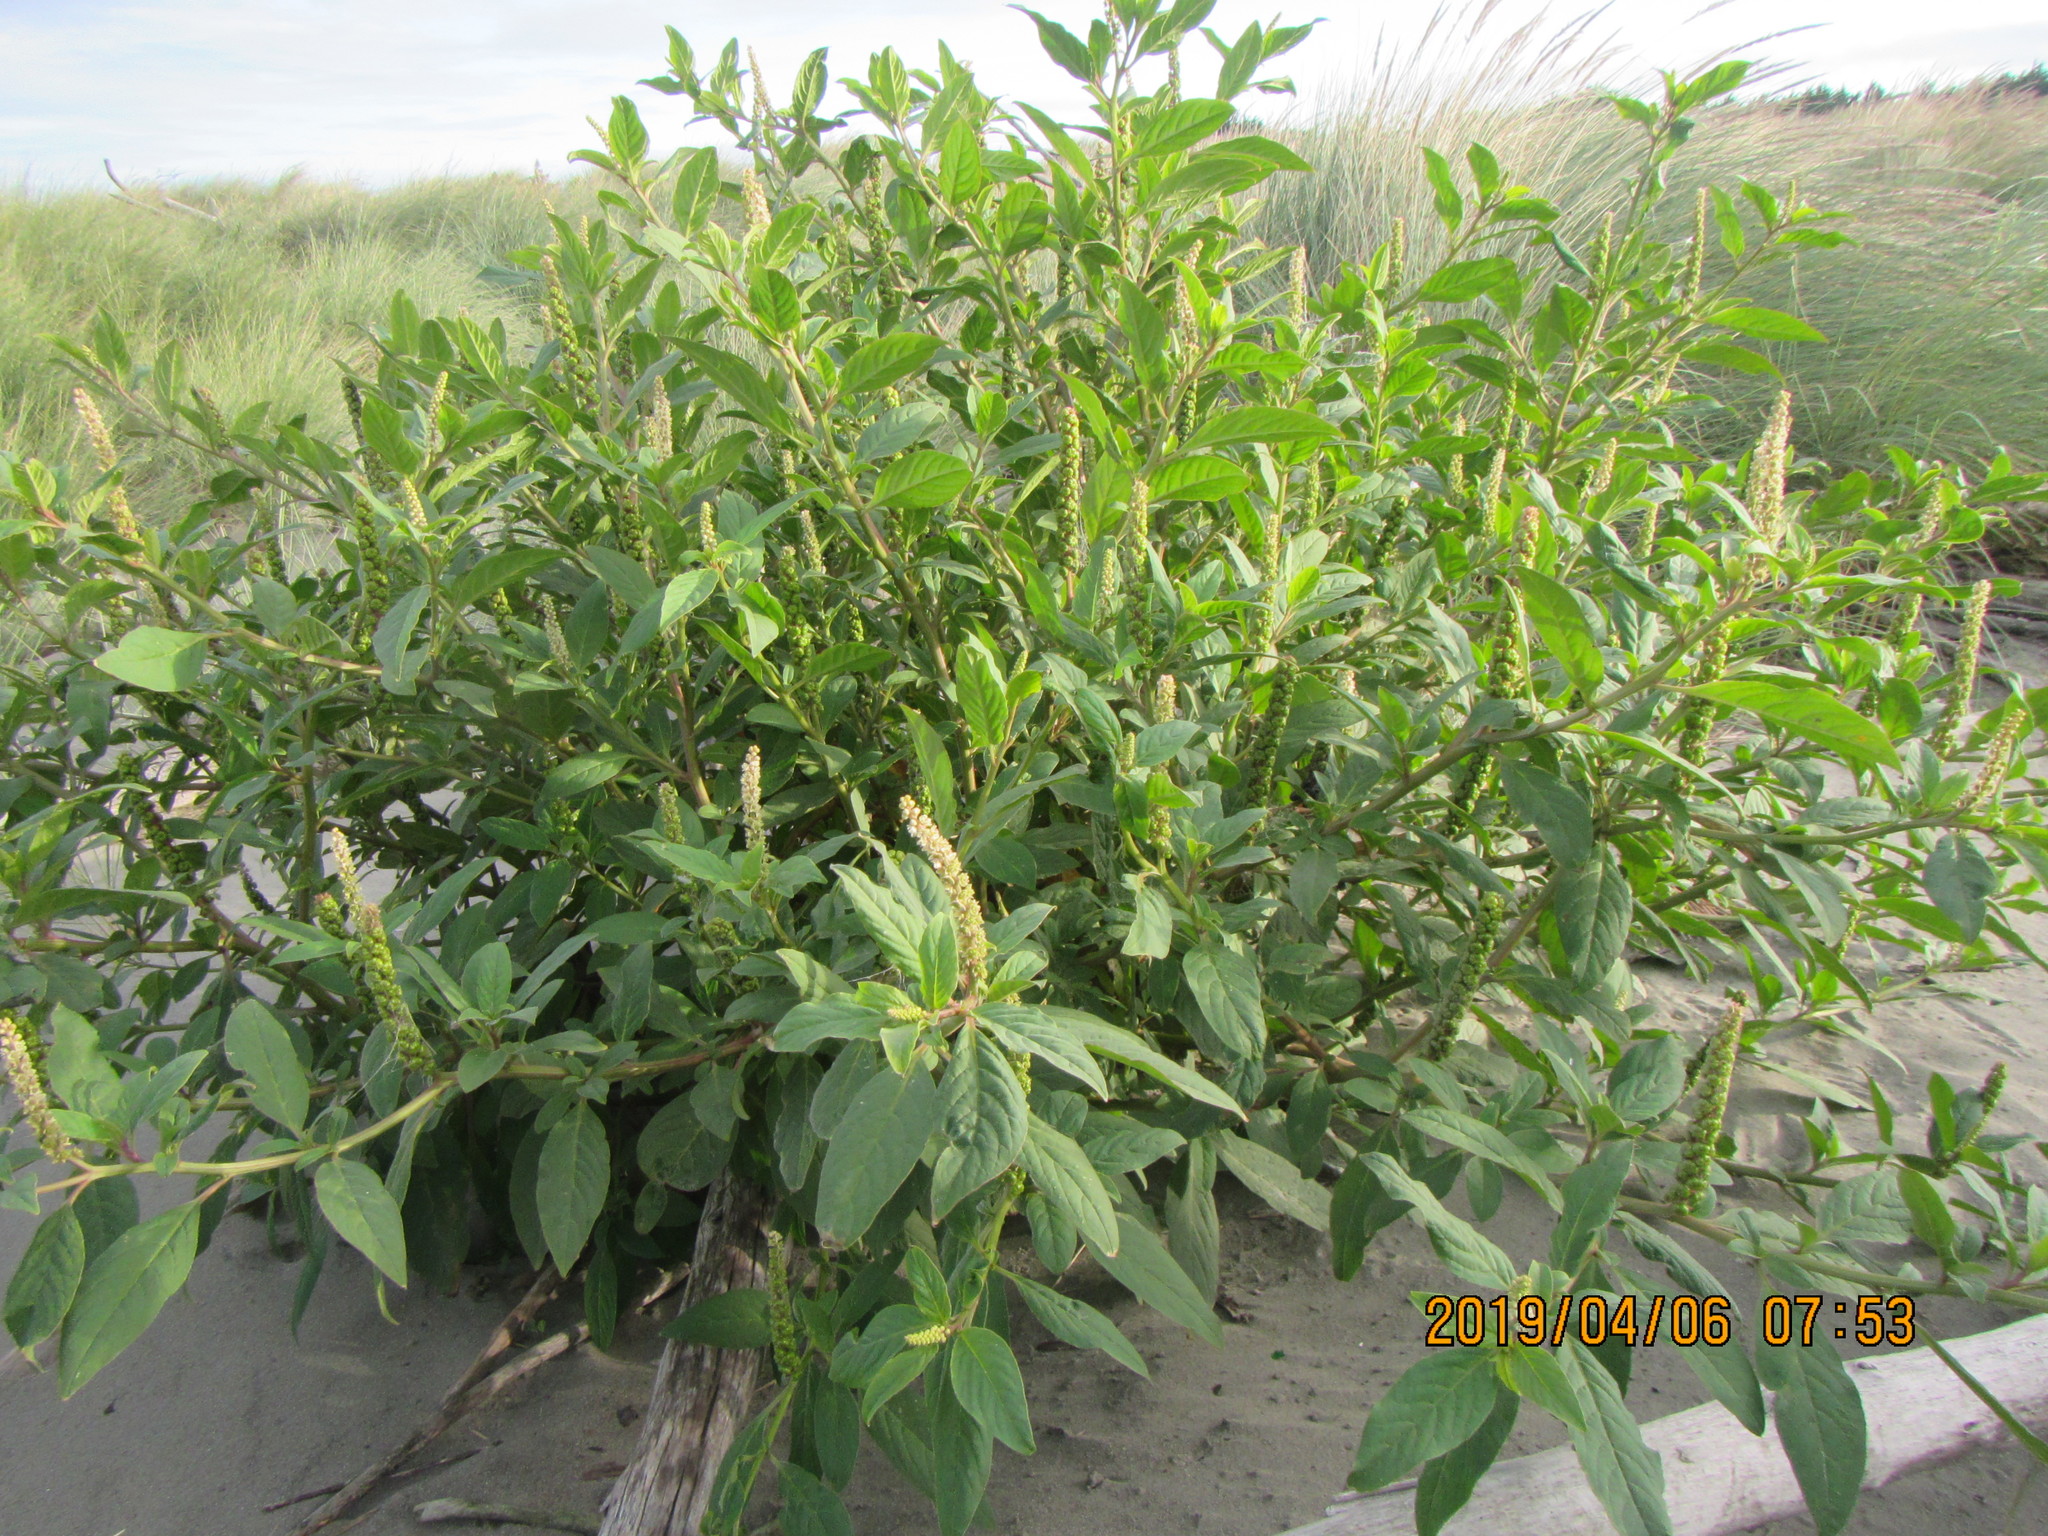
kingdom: Plantae
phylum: Tracheophyta
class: Magnoliopsida
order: Caryophyllales
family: Phytolaccaceae
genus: Phytolacca
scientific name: Phytolacca icosandra
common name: Button pokeweed
